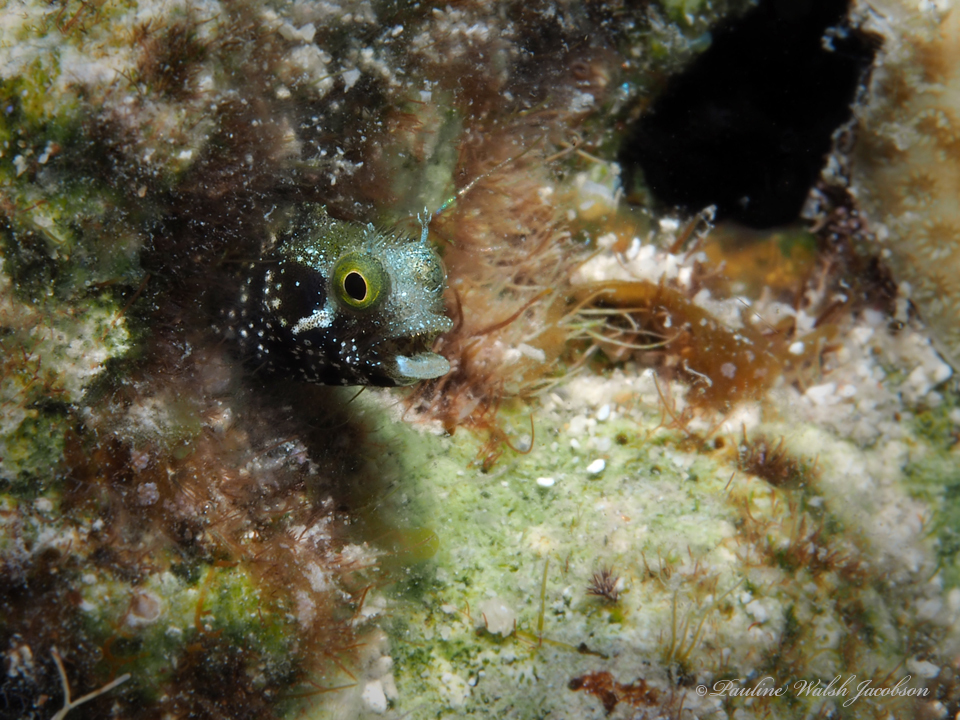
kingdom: Animalia
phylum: Chordata
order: Perciformes
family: Chaenopsidae
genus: Acanthemblemaria
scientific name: Acanthemblemaria spinosa
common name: Spinyhead blenny
